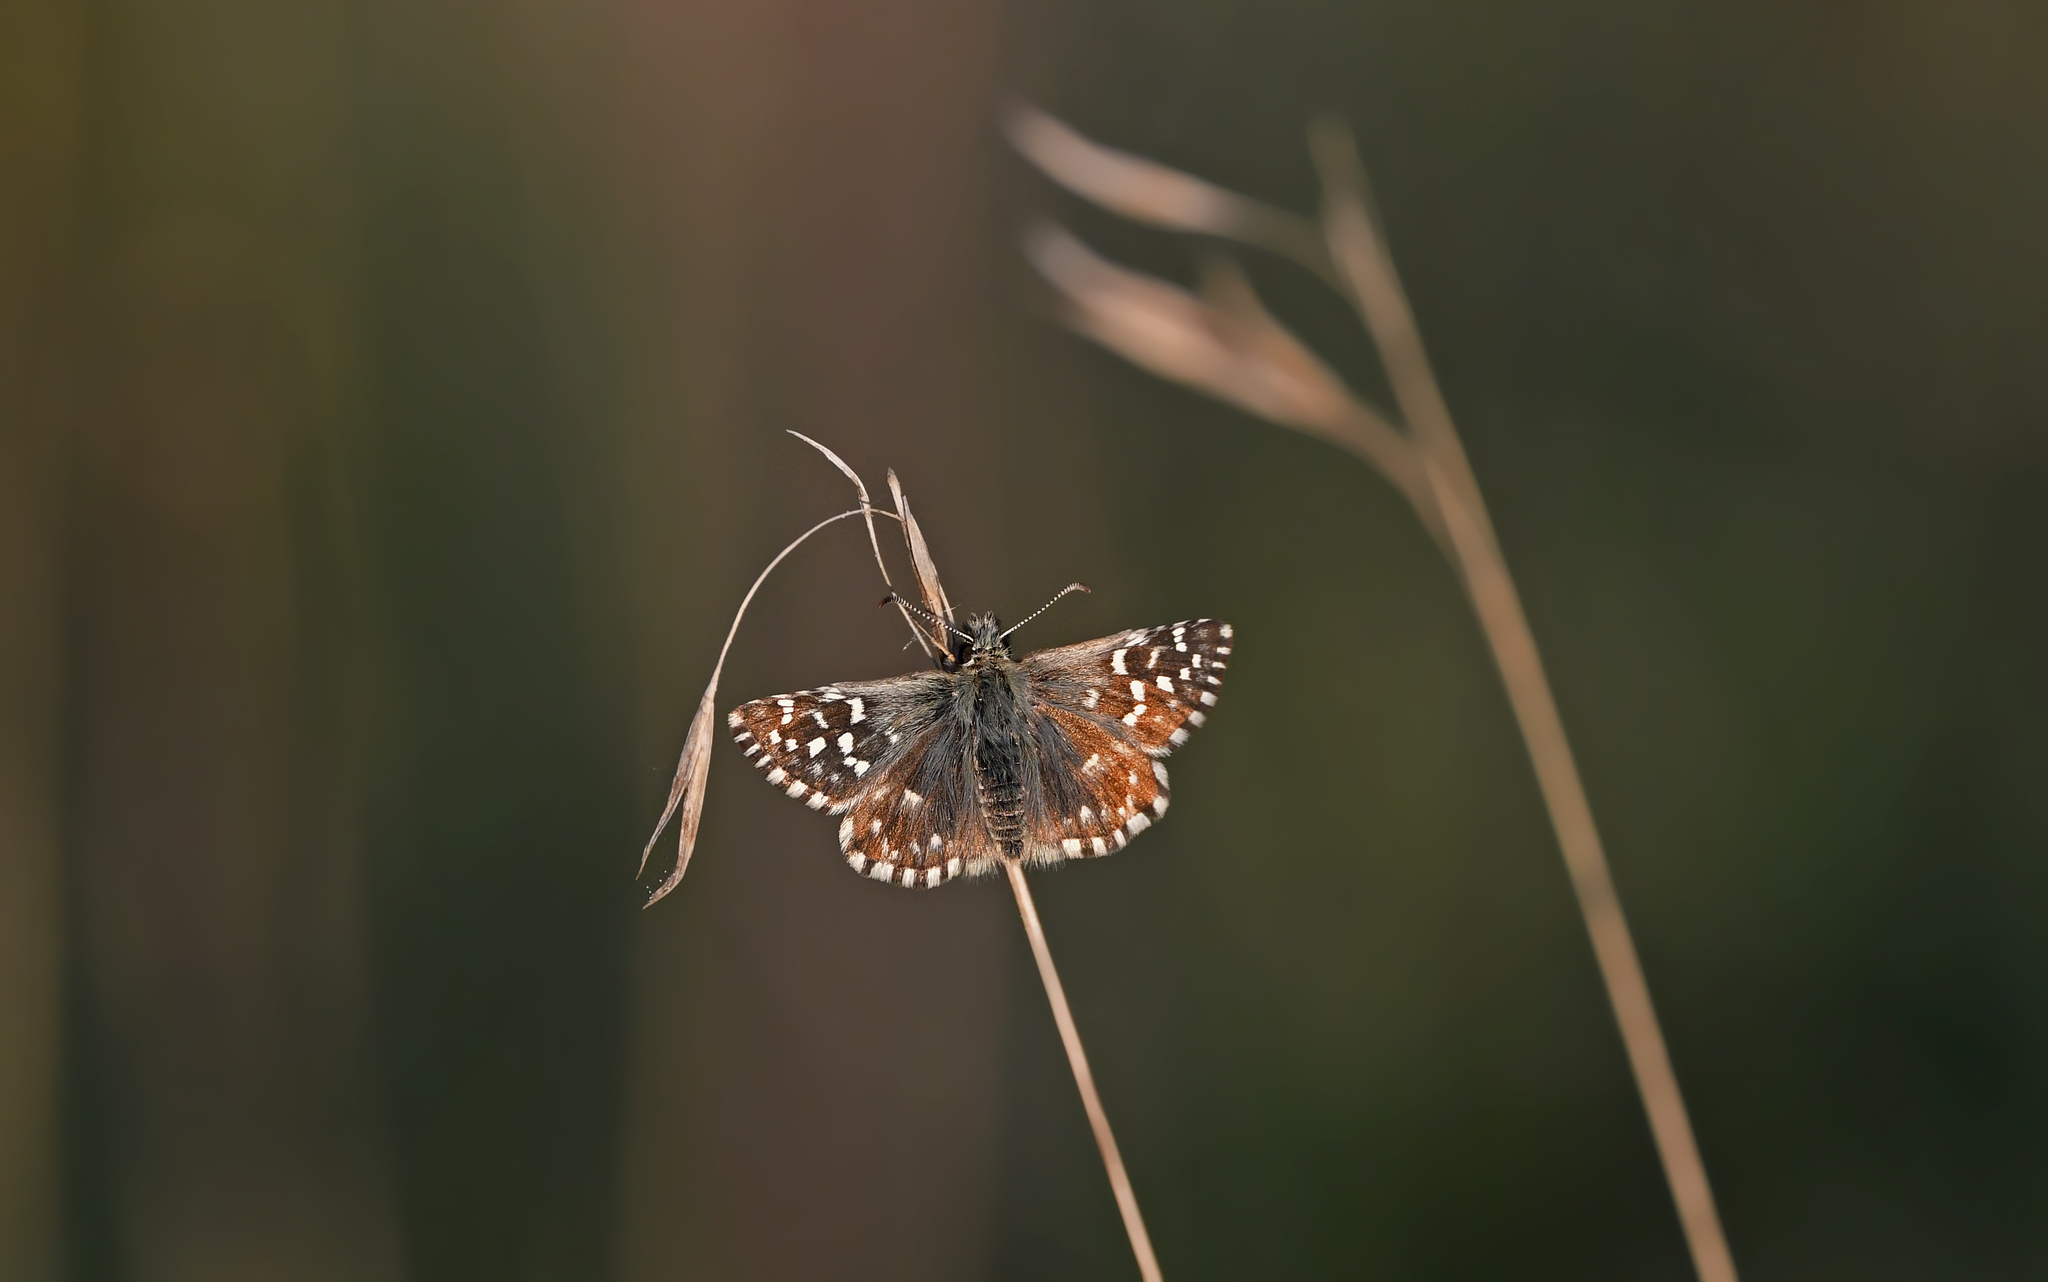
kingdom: Animalia
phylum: Arthropoda
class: Insecta
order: Lepidoptera
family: Hesperiidae
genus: Pyrgus
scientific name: Pyrgus malvae
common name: Grizzled skipper
